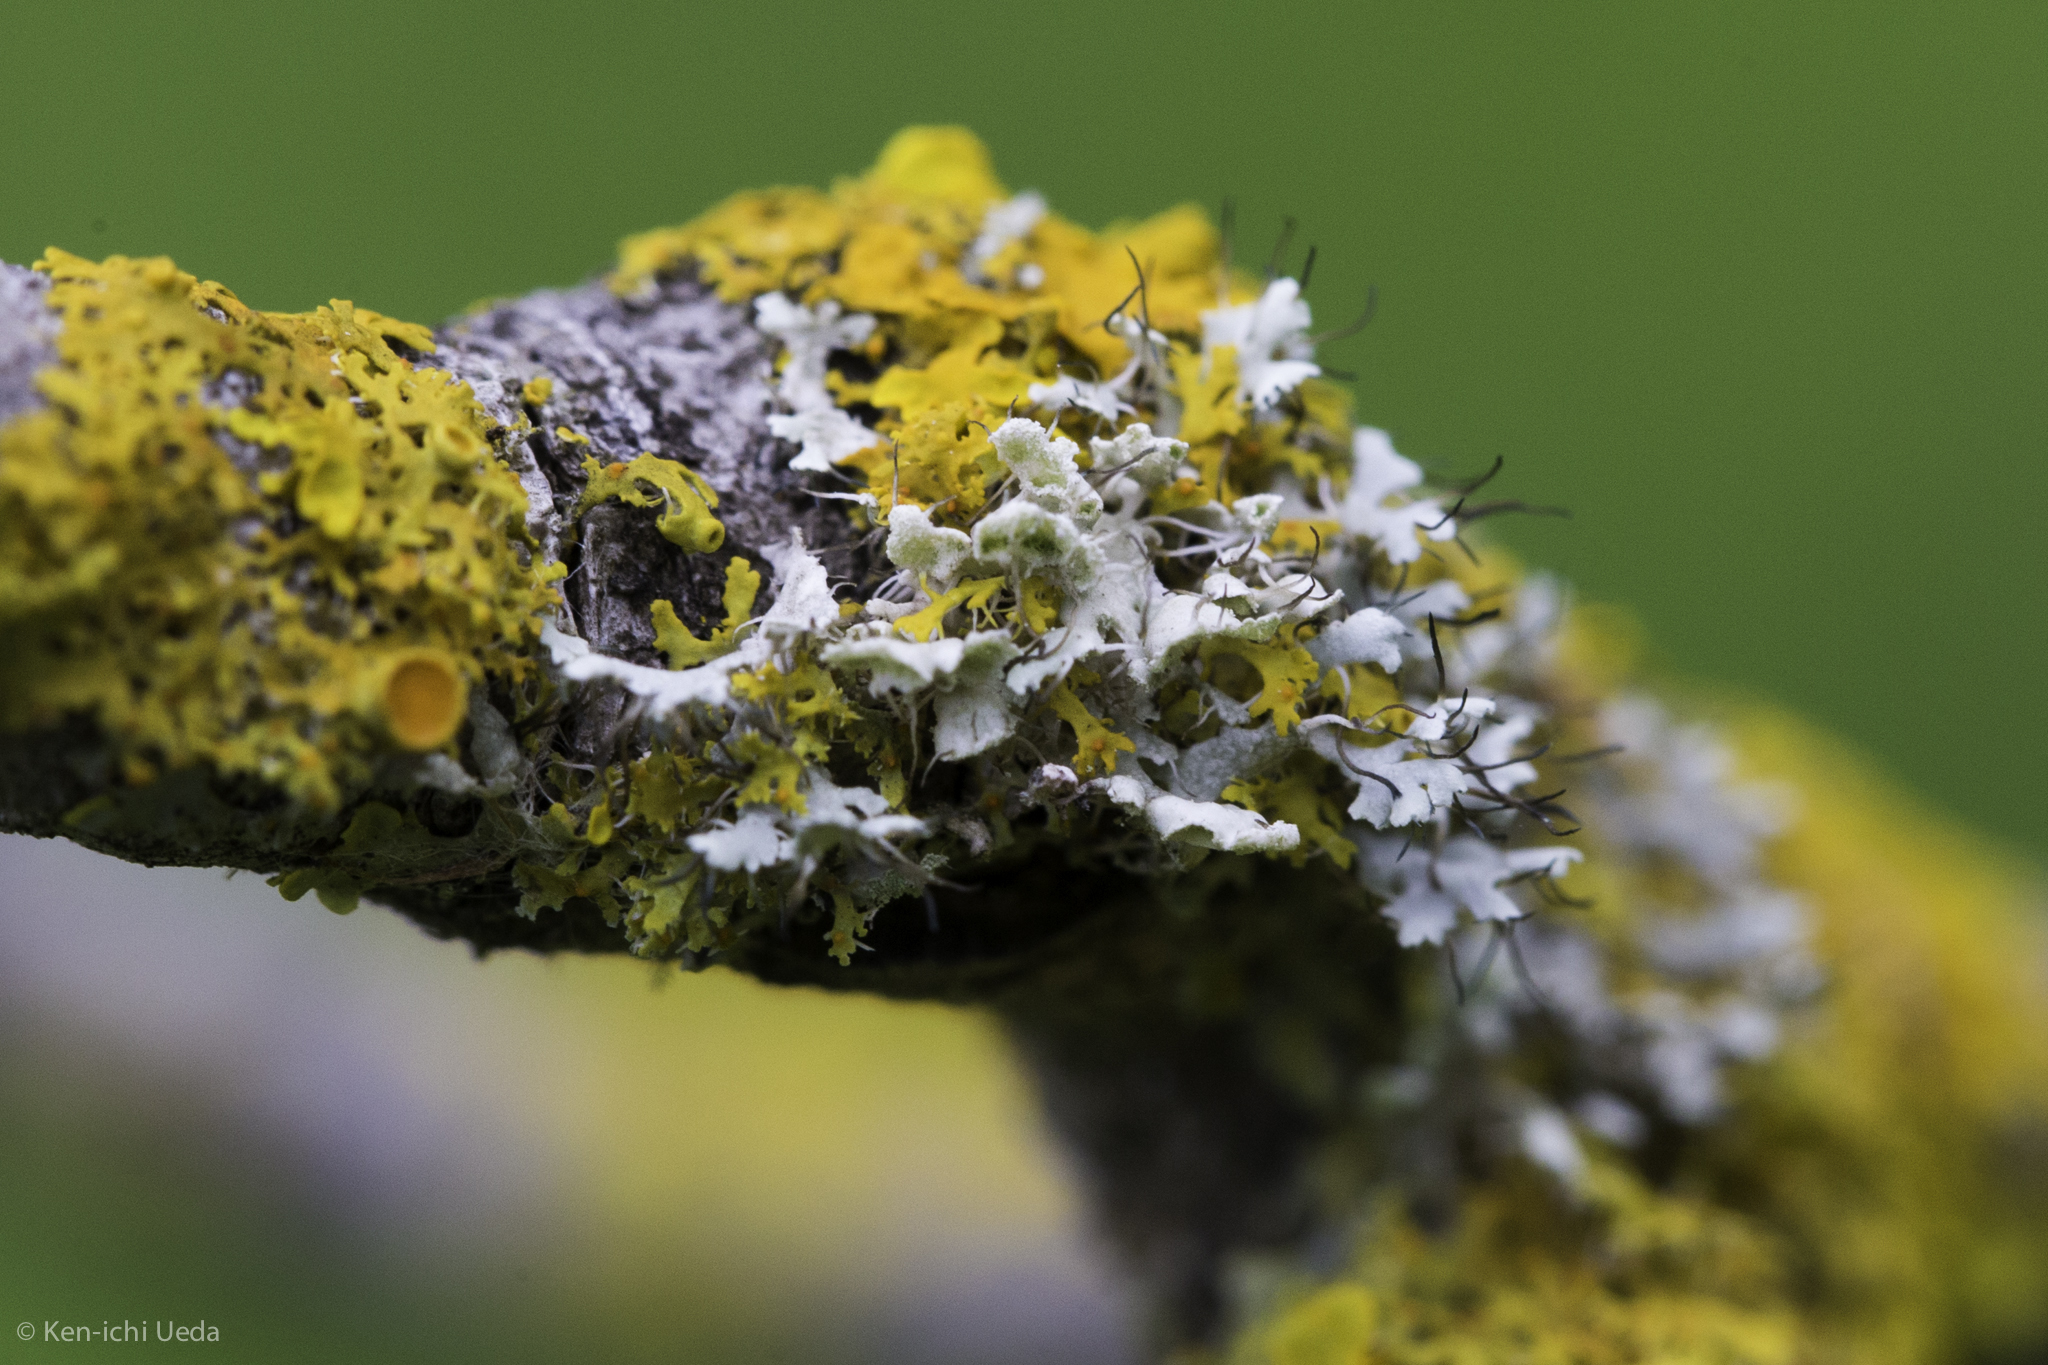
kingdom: Fungi
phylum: Ascomycota
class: Lecanoromycetes
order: Caliciales
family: Physciaceae
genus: Physcia
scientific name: Physcia adscendens
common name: Hooded rosette lichen
